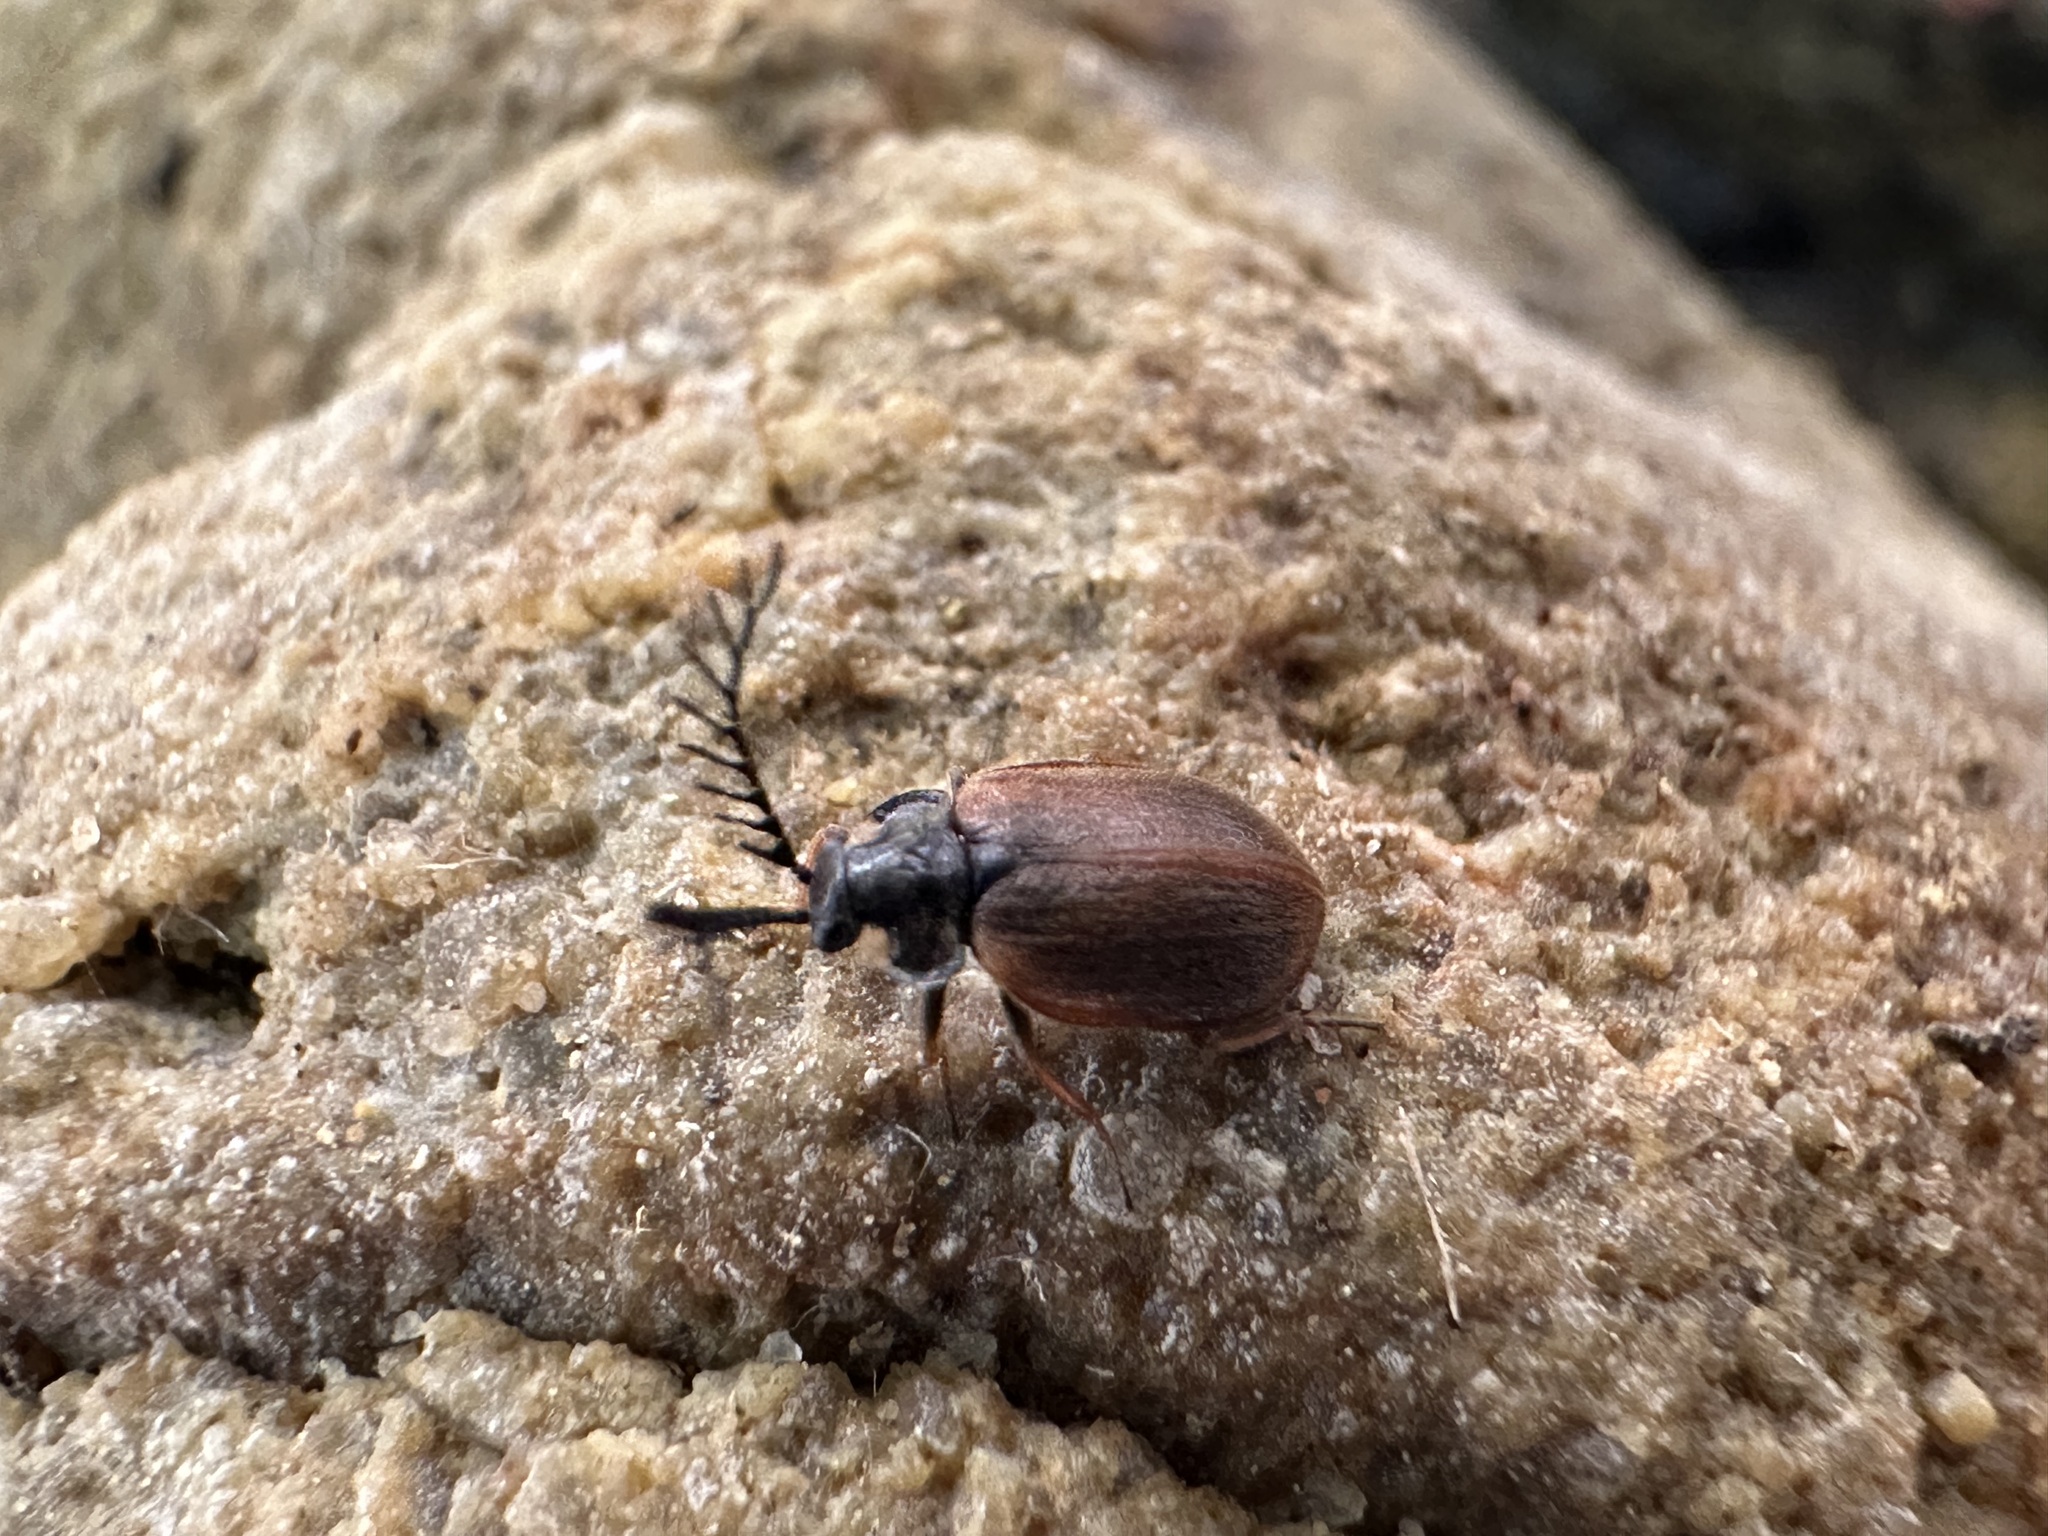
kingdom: Animalia
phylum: Arthropoda
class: Insecta
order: Coleoptera
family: Psephenidae
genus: Eubrianax
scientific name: Eubrianax edwardsii
